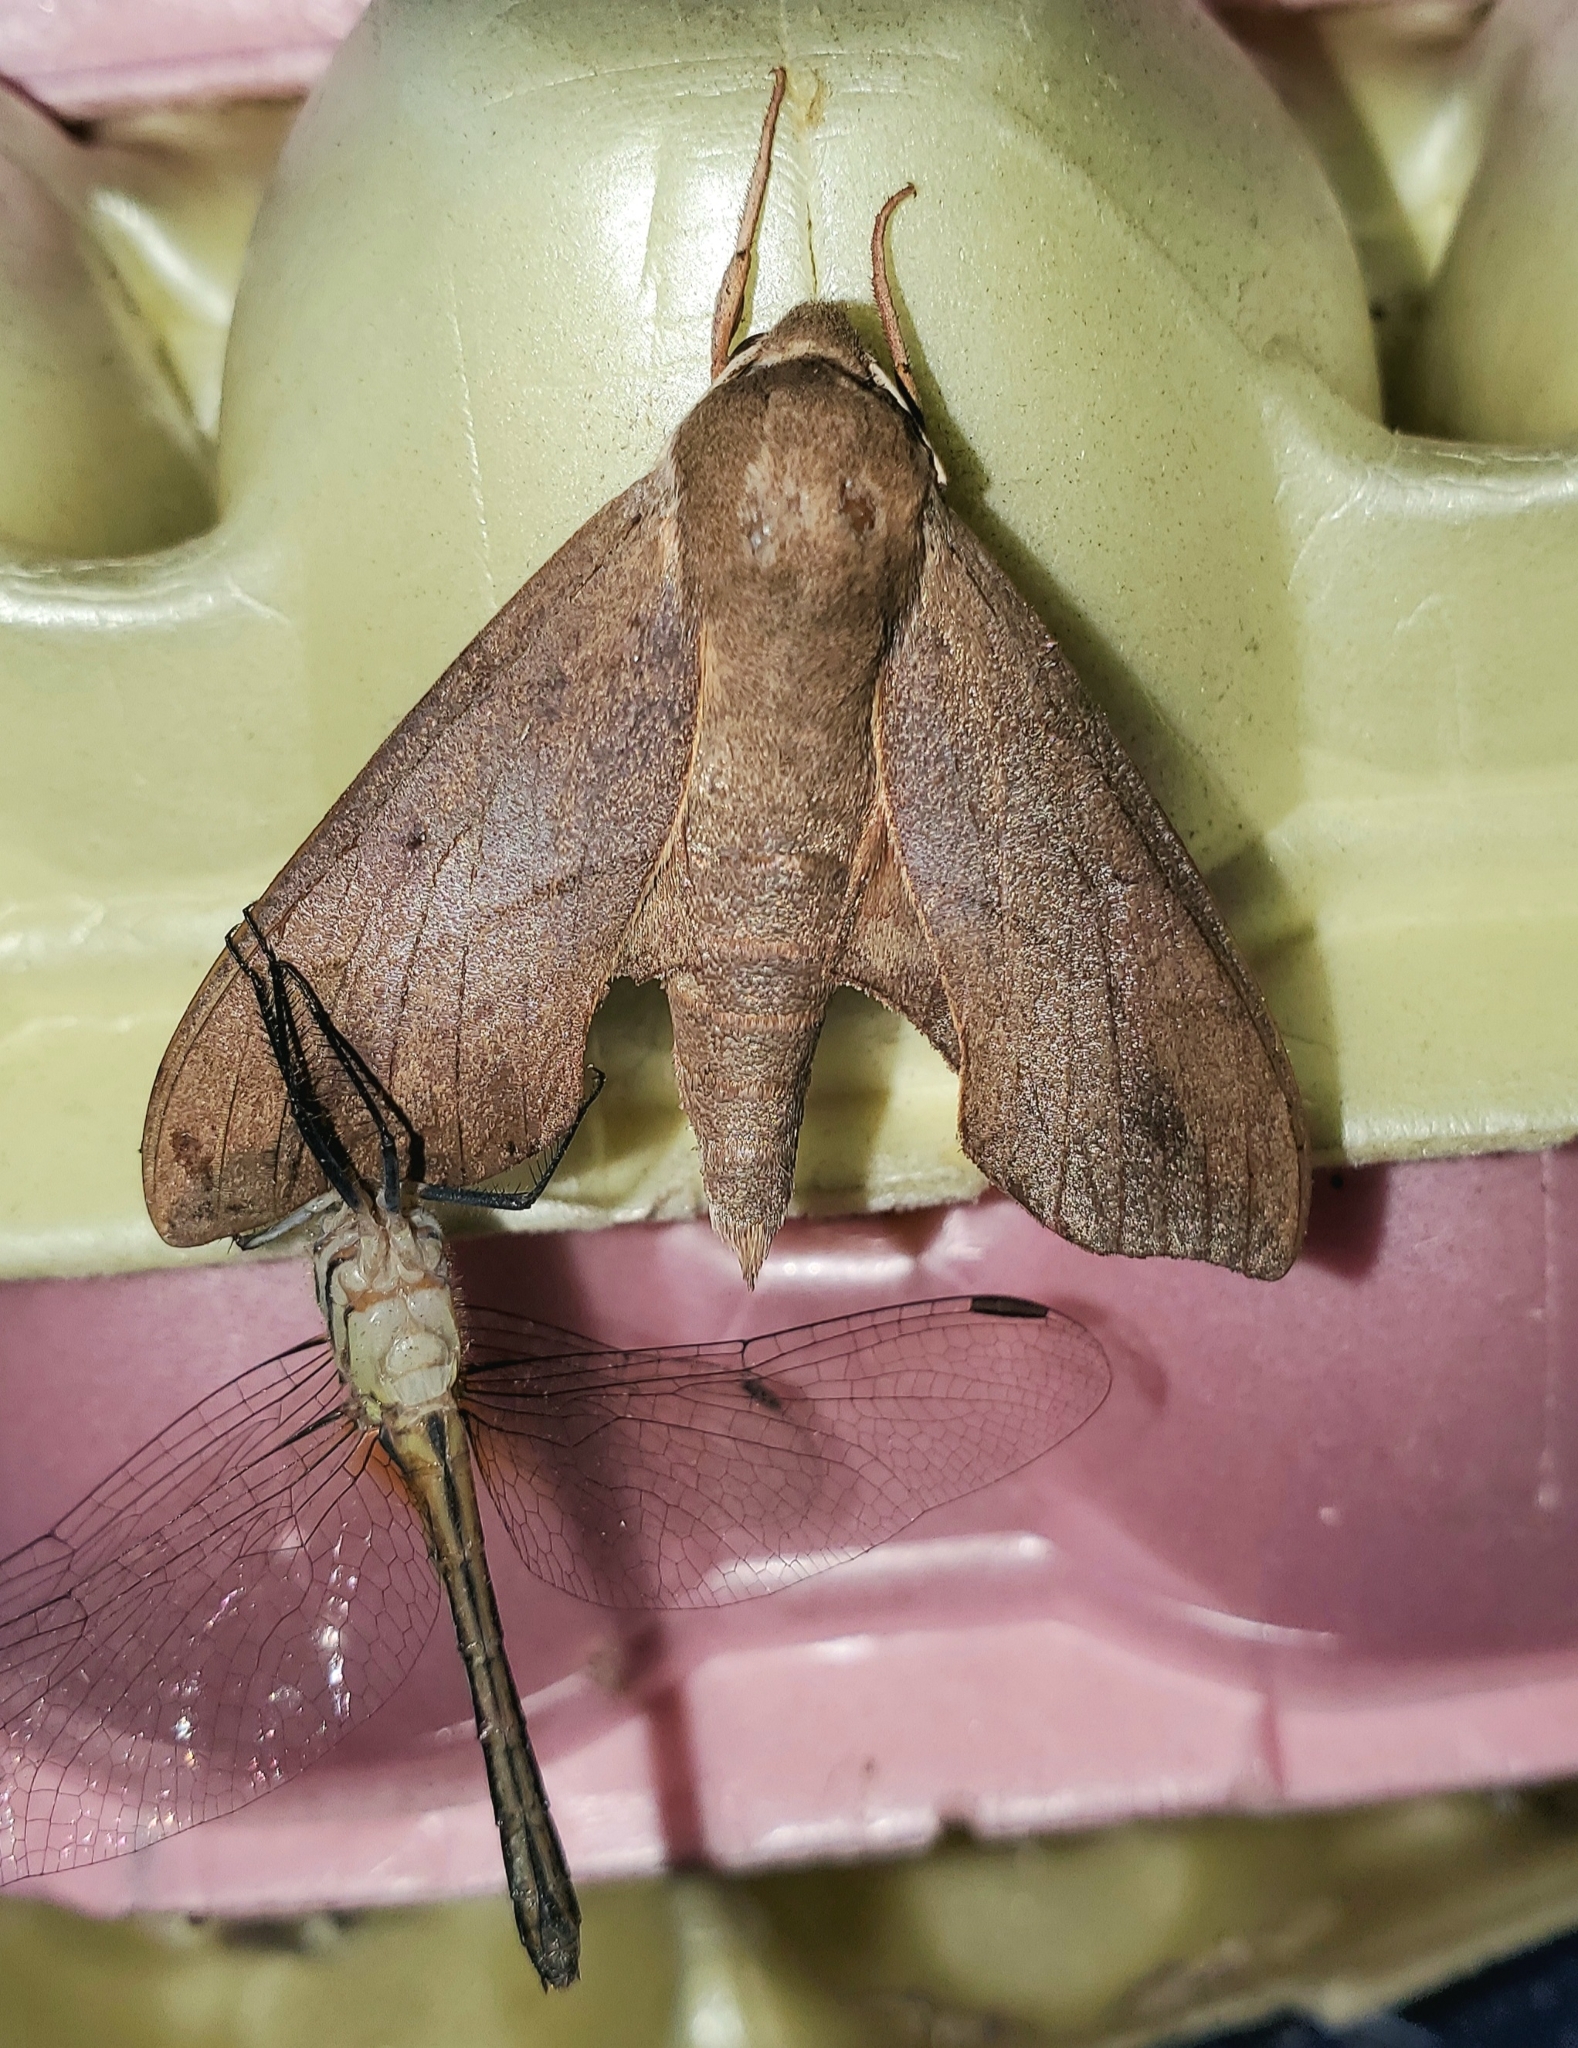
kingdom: Animalia
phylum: Arthropoda
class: Insecta
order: Lepidoptera
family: Sphingidae
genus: Darapsa
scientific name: Darapsa myron
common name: Hog sphinx
